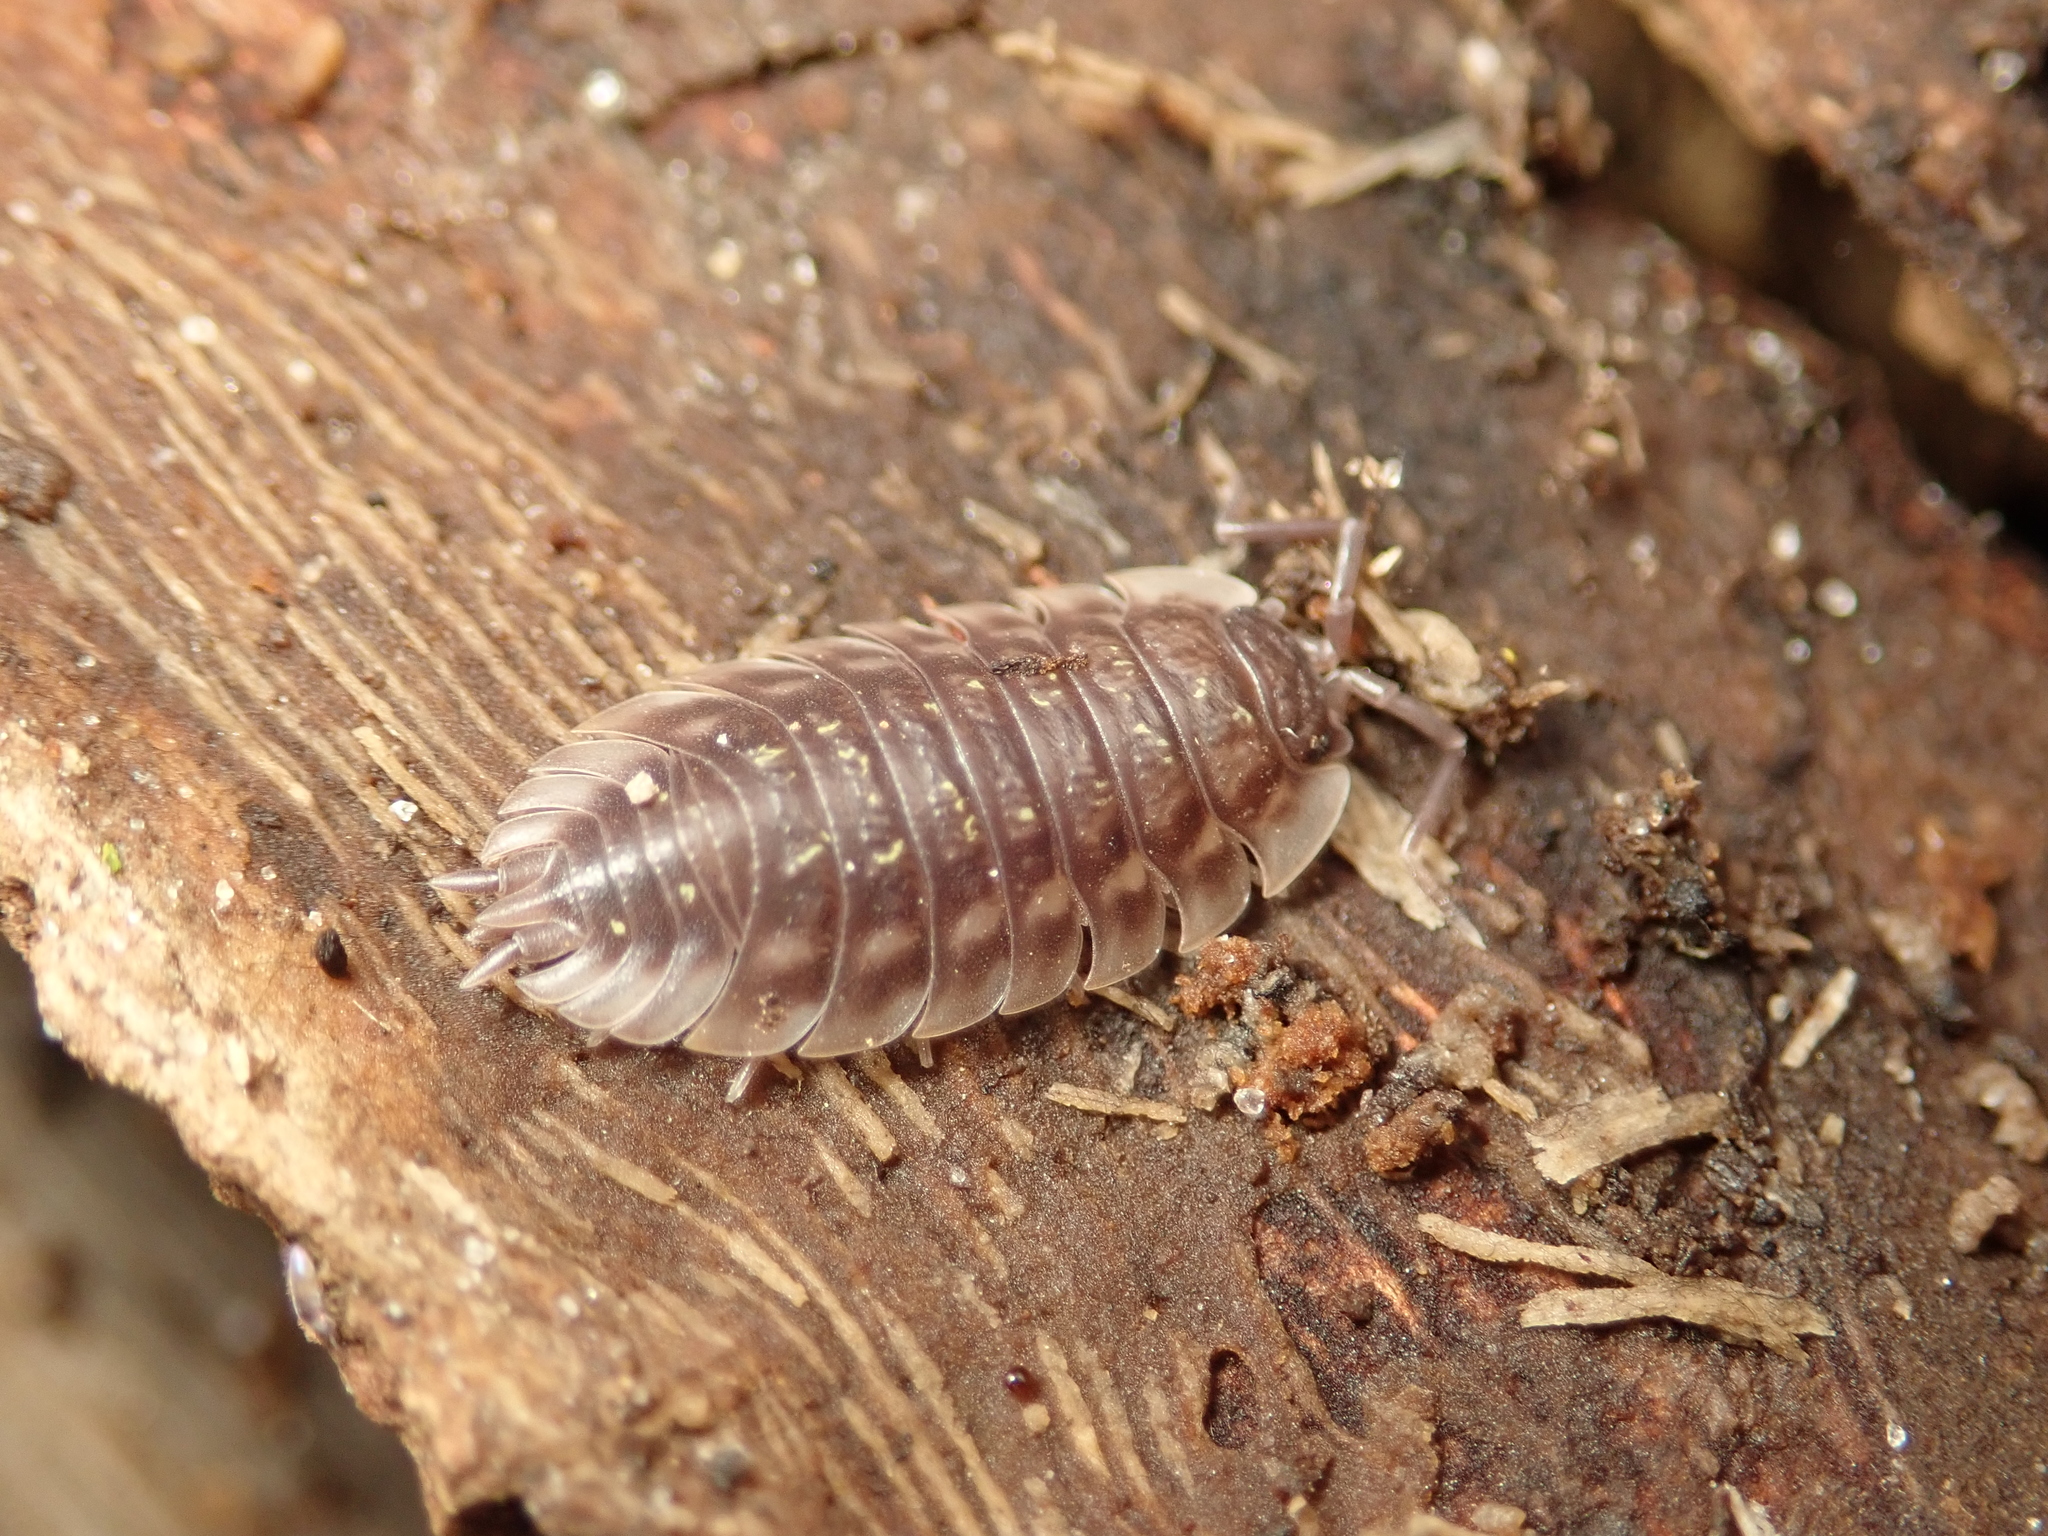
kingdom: Animalia
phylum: Arthropoda
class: Malacostraca
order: Isopoda
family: Oniscidae
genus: Oniscus
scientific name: Oniscus asellus
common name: Common shiny woodlouse
